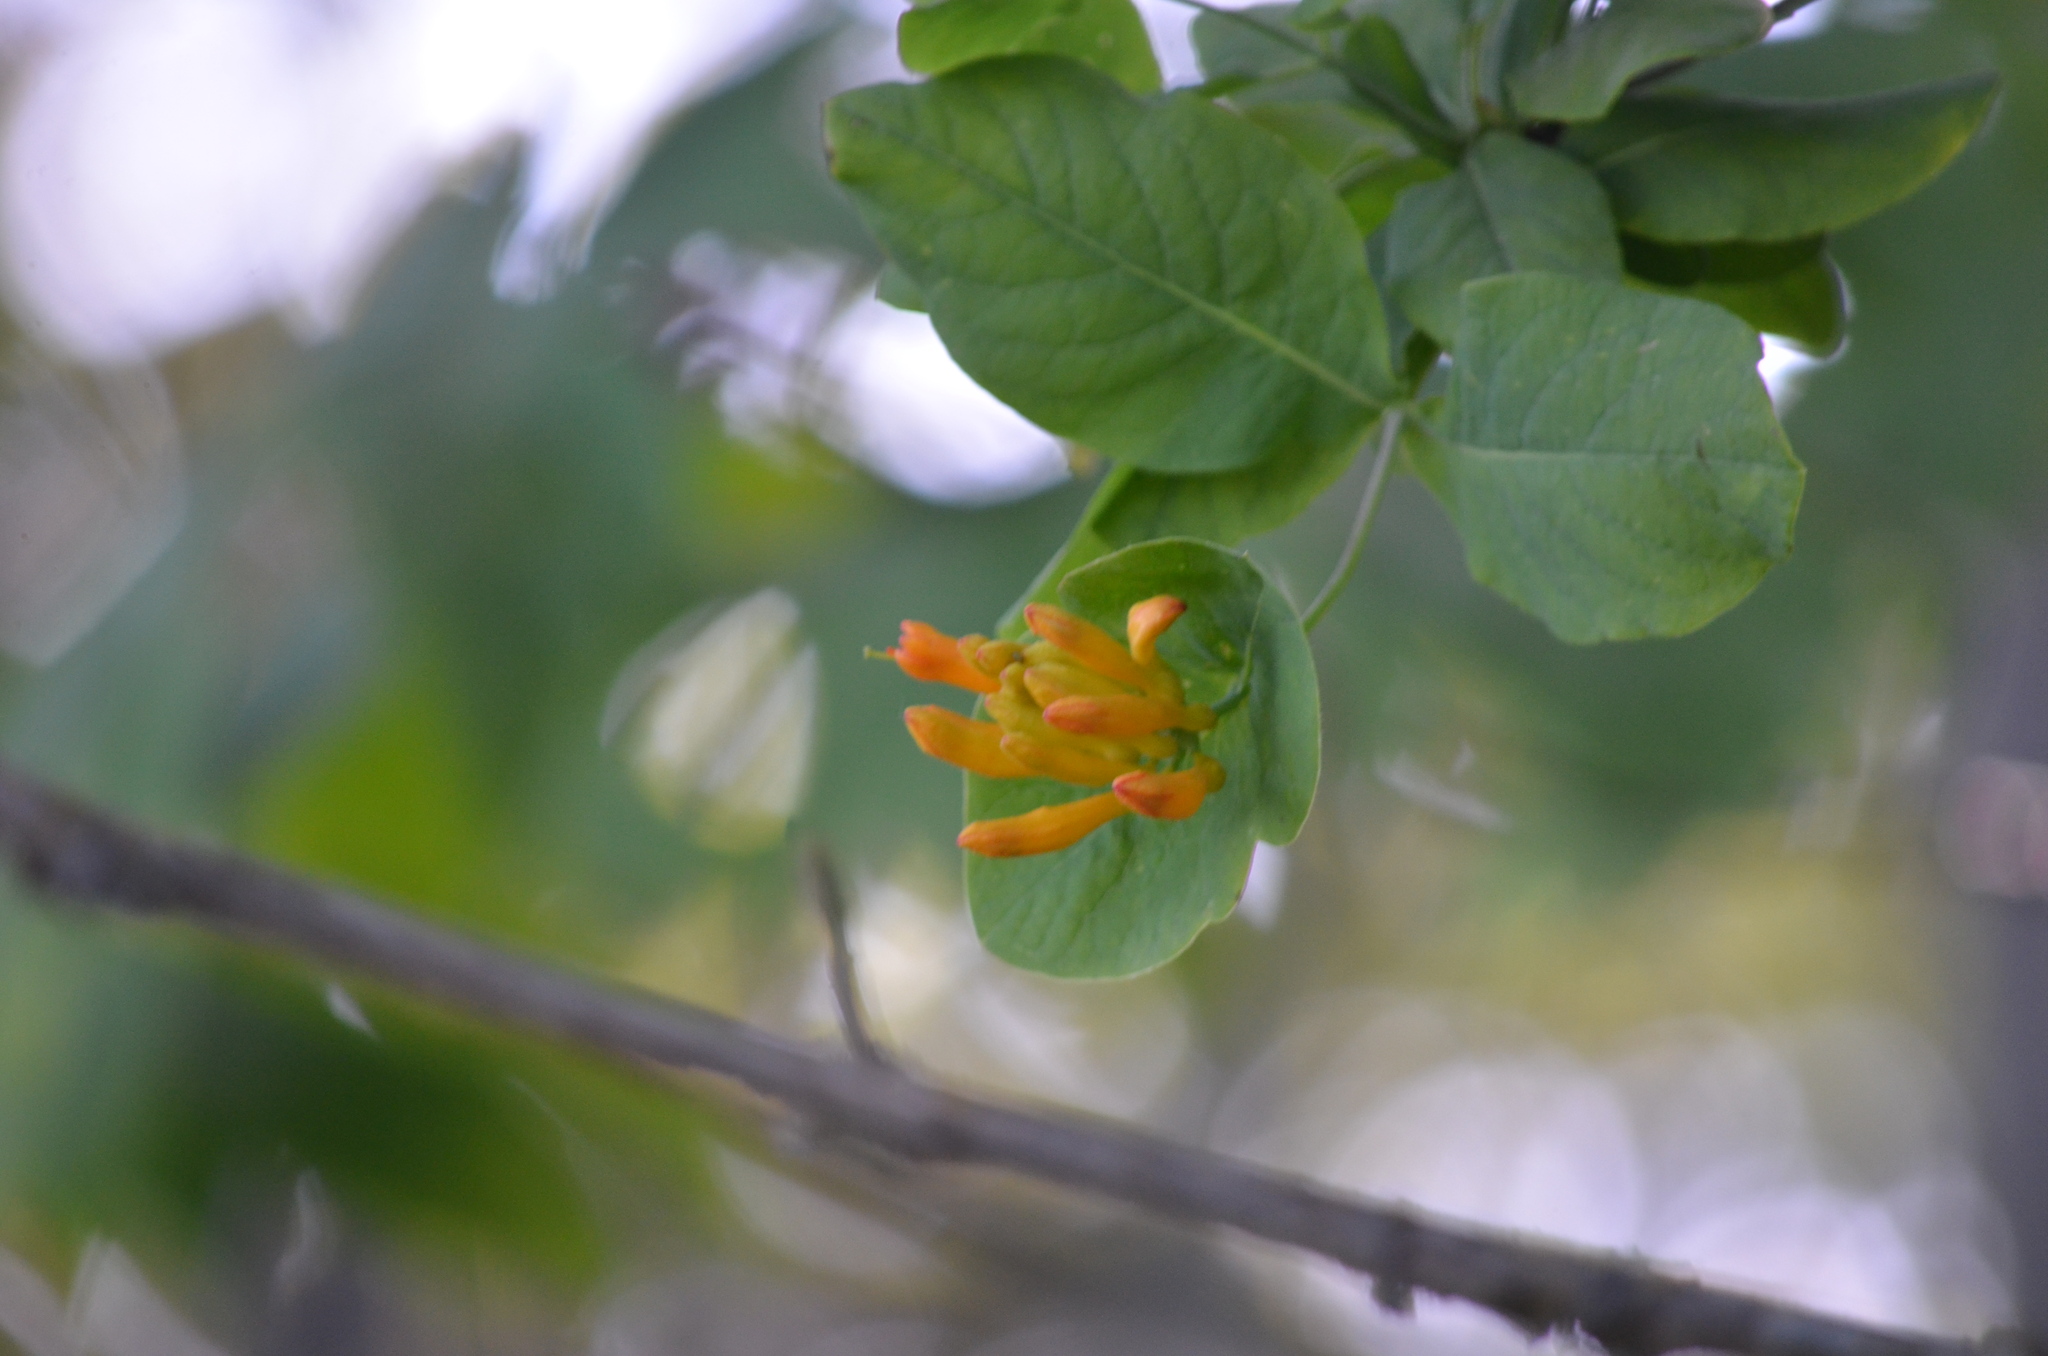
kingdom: Plantae
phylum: Tracheophyta
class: Magnoliopsida
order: Dipsacales
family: Caprifoliaceae
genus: Lonicera
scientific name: Lonicera ciliosa
